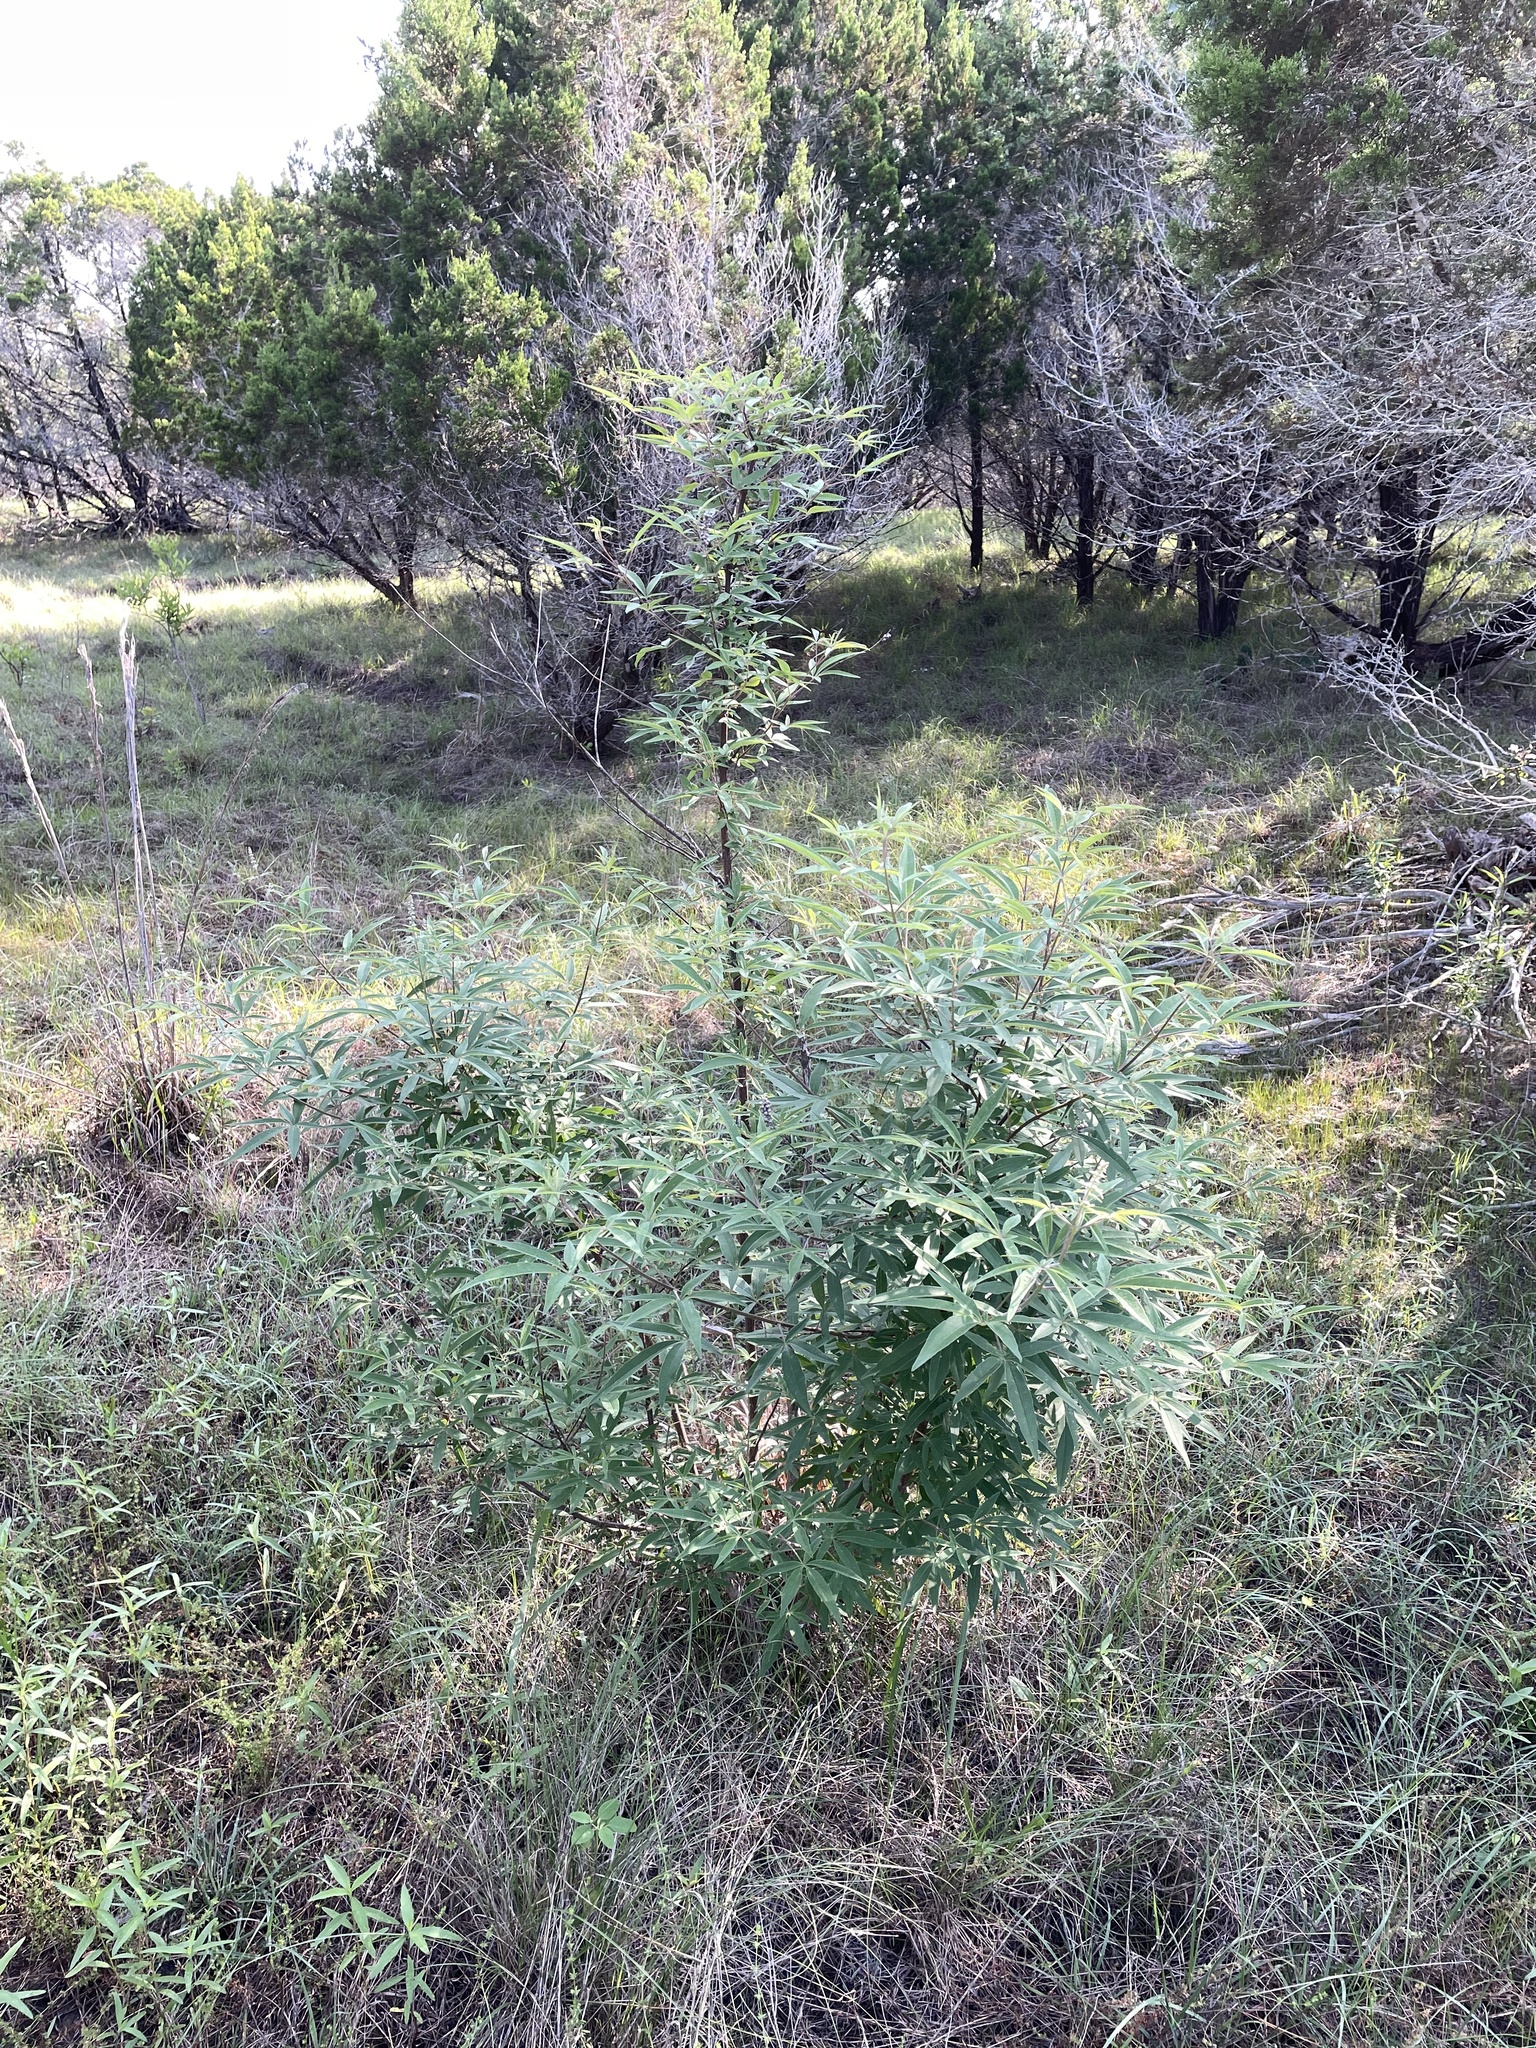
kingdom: Plantae
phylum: Tracheophyta
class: Magnoliopsida
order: Lamiales
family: Lamiaceae
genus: Vitex
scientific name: Vitex agnus-castus
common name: Chasteberry
